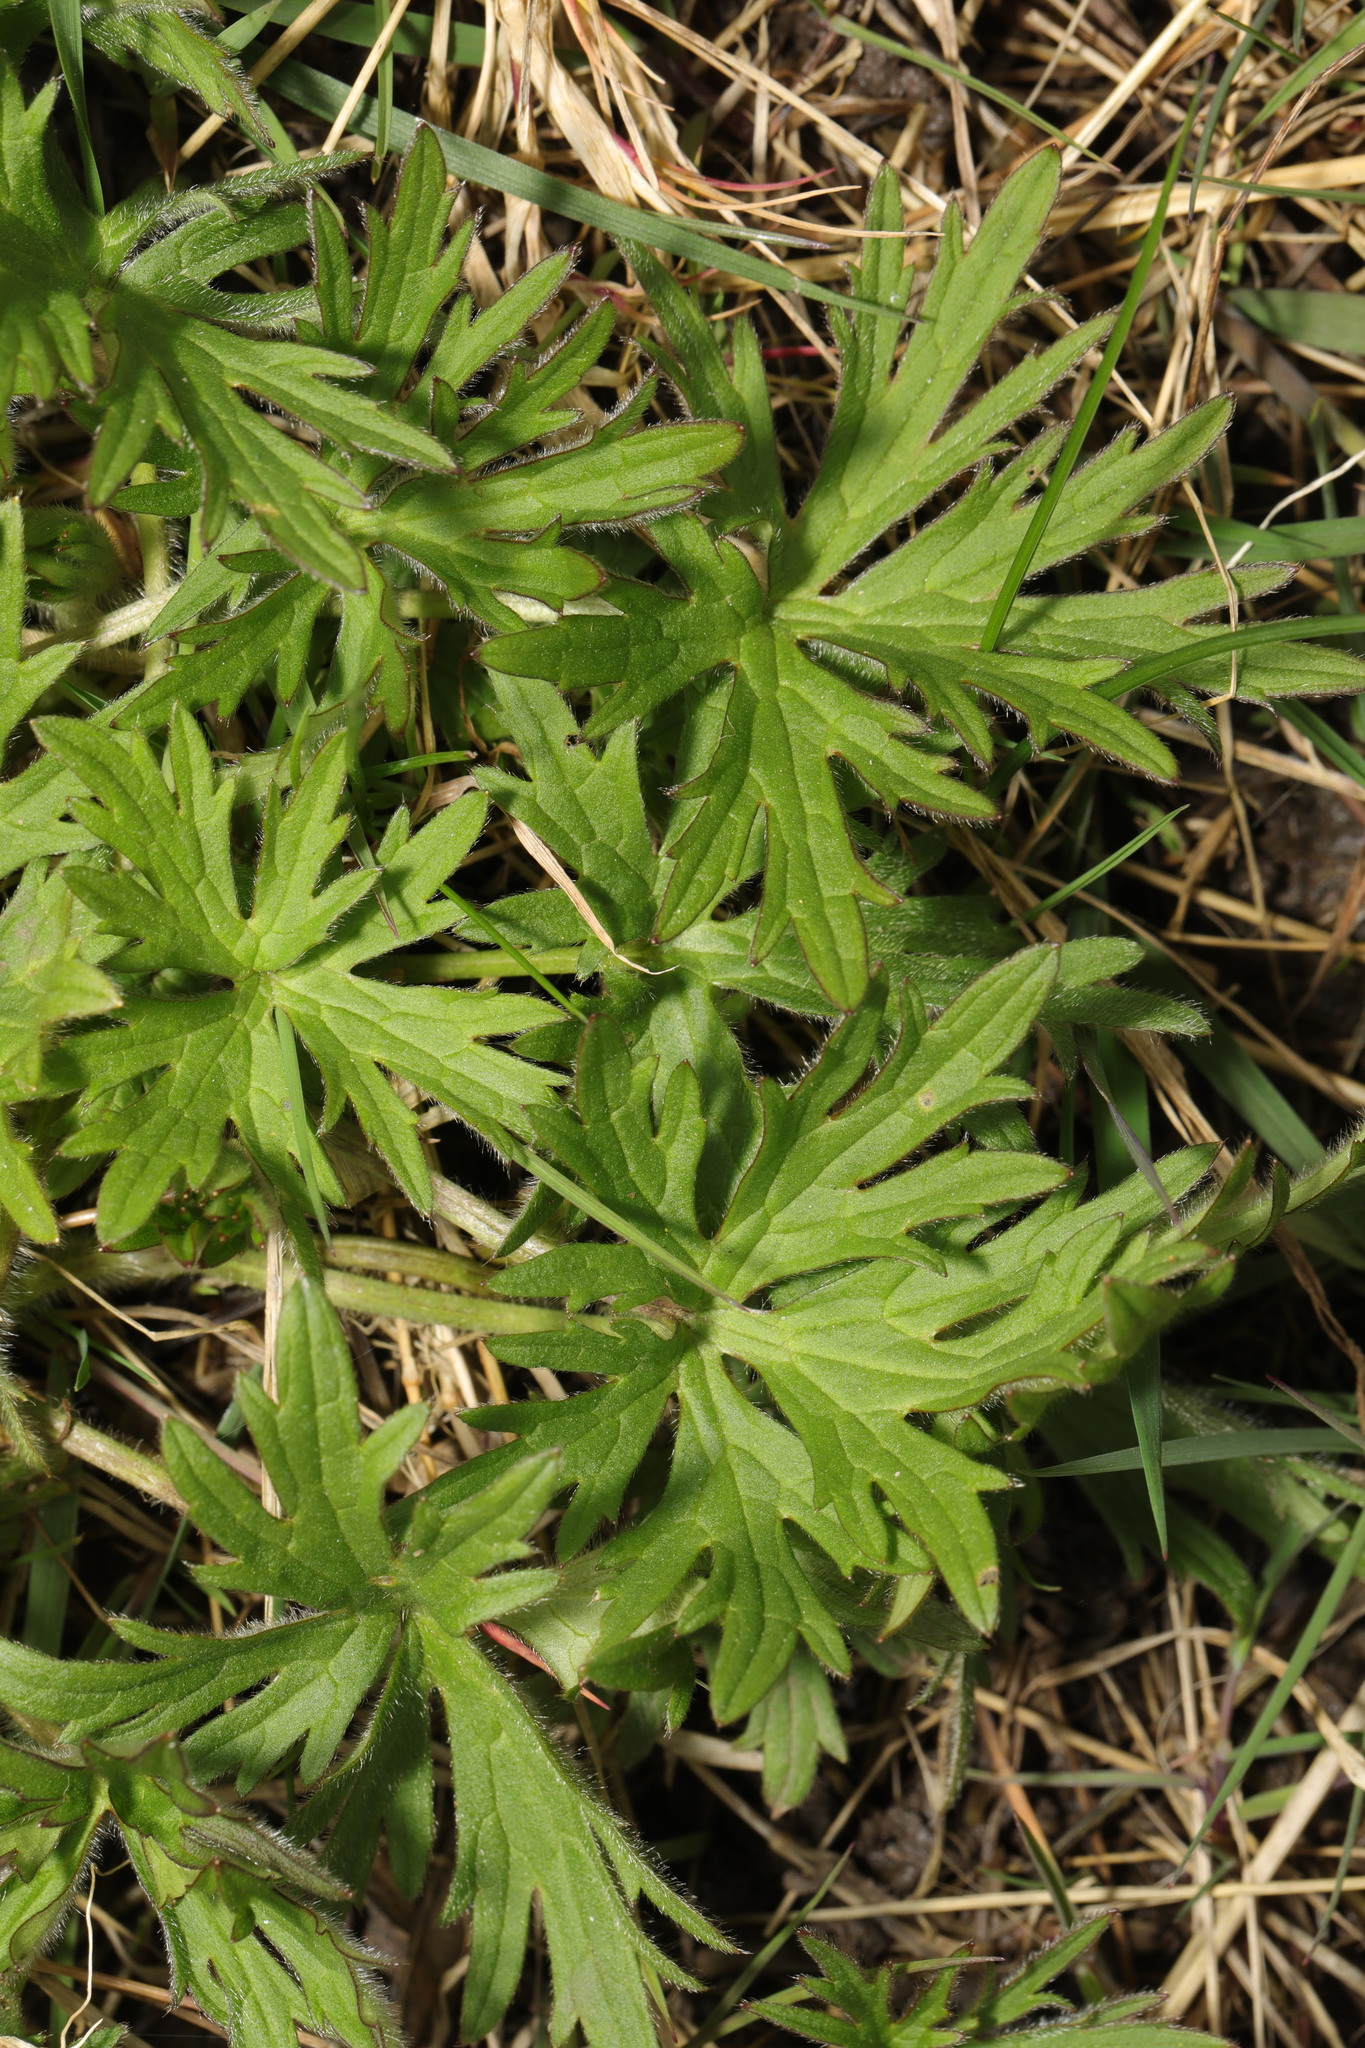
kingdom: Plantae
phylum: Tracheophyta
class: Magnoliopsida
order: Ranunculales
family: Ranunculaceae
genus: Ranunculus
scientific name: Ranunculus acris
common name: Meadow buttercup
